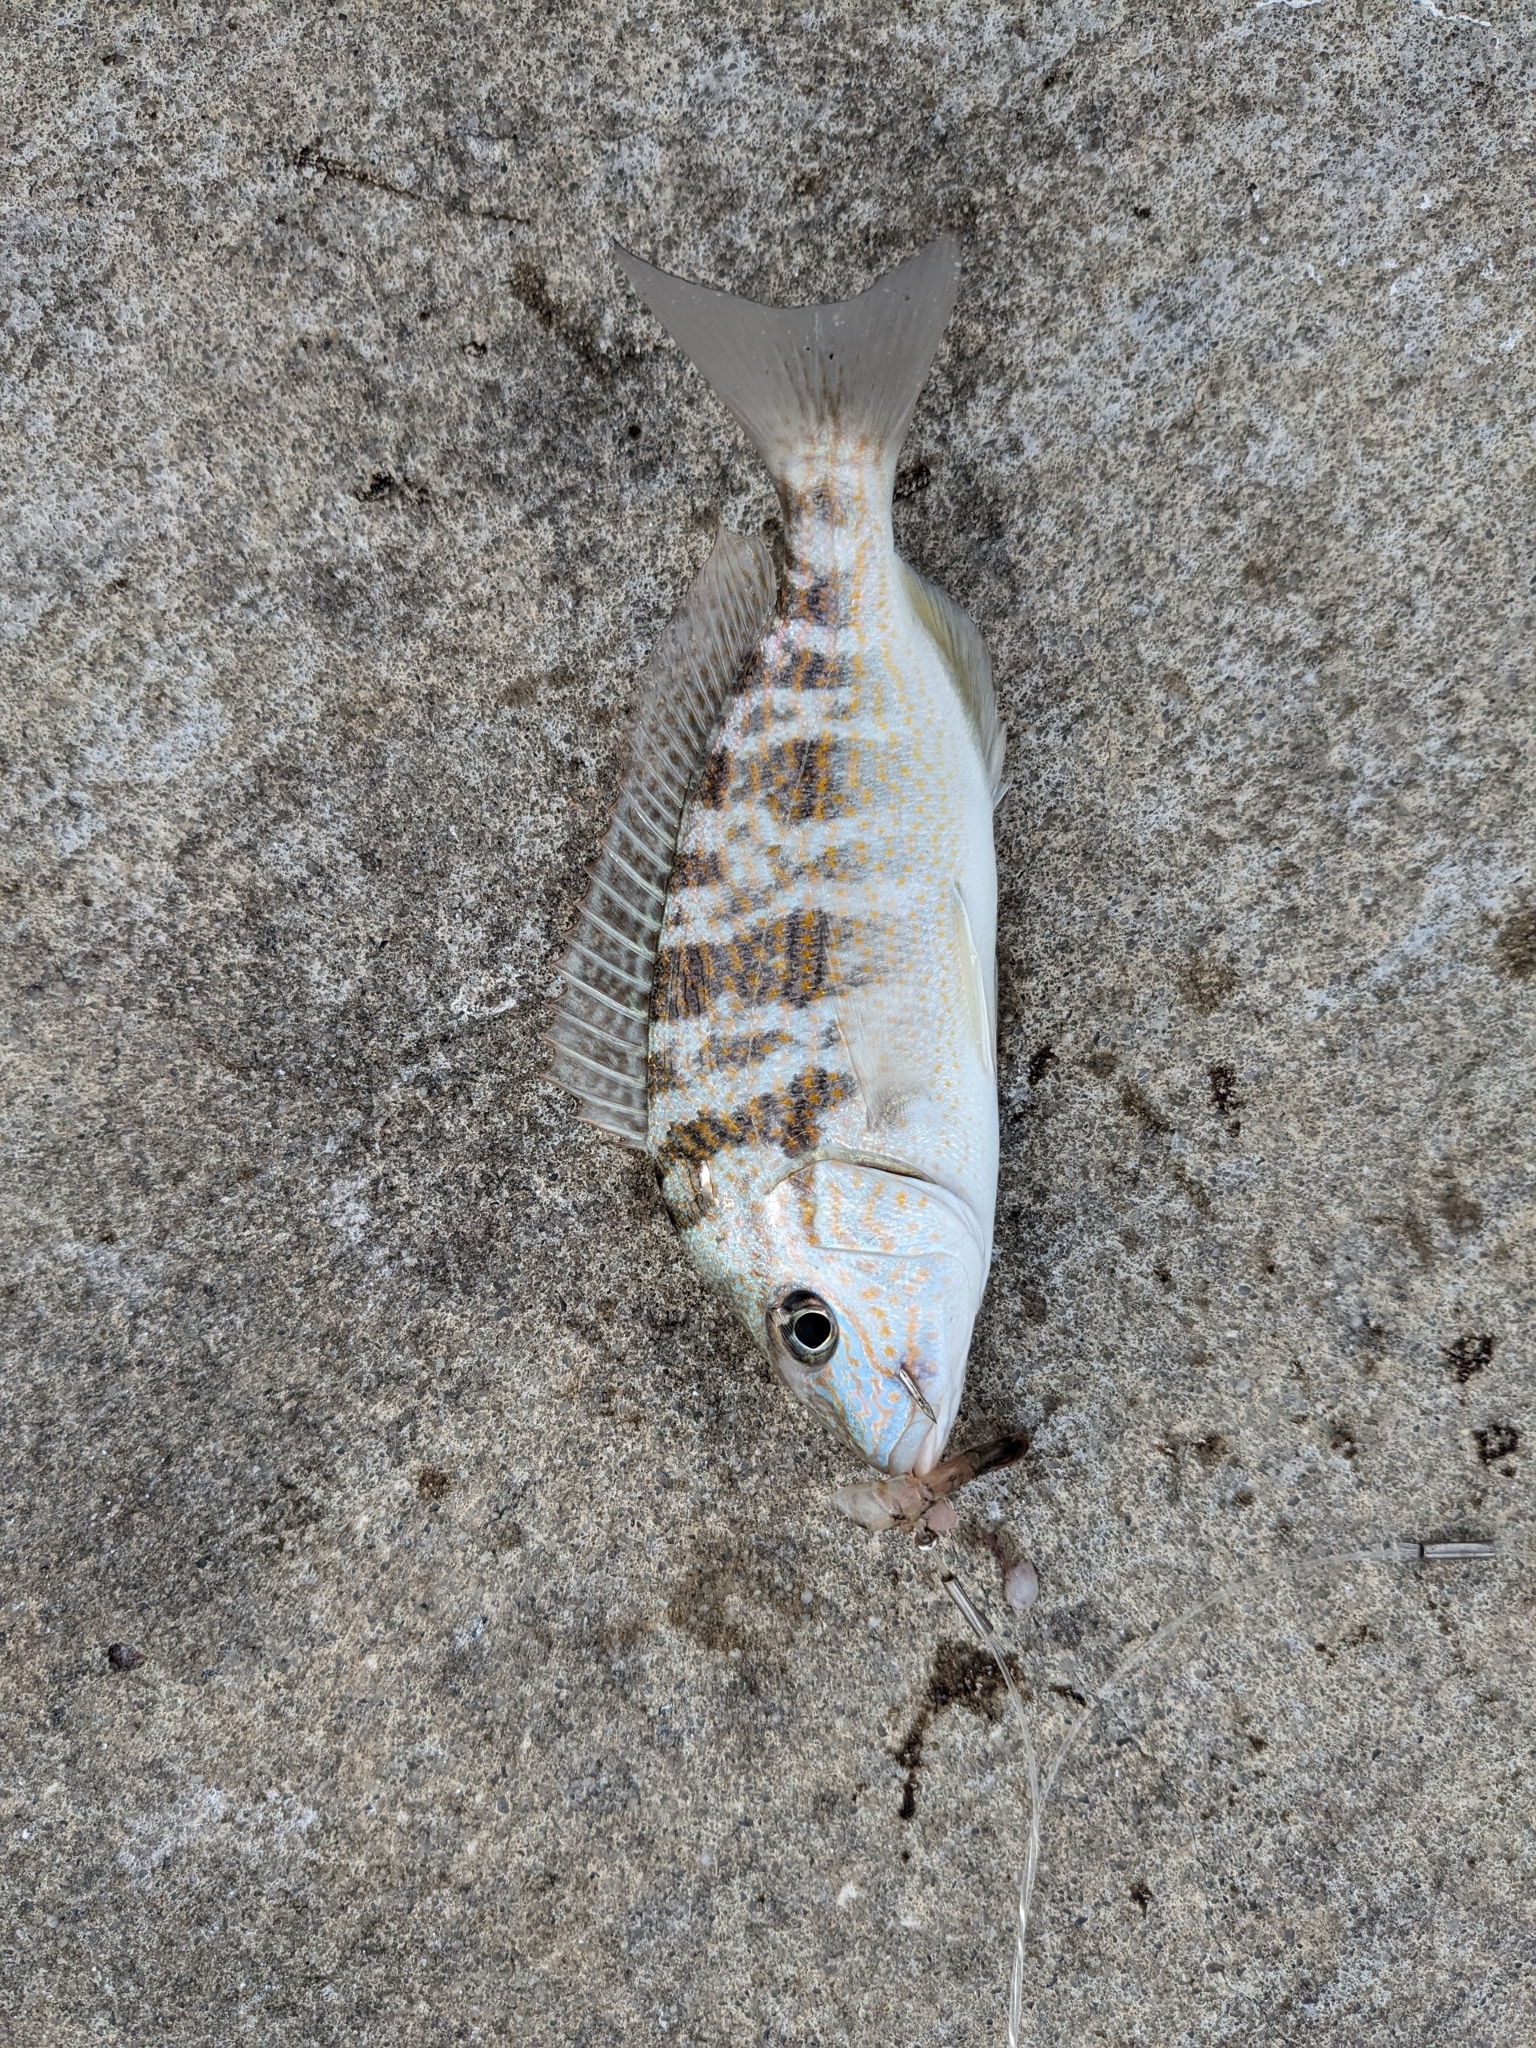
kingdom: Animalia
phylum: Chordata
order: Perciformes
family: Haemulidae
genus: Orthopristis
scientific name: Orthopristis chrysoptera
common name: Pigfish
